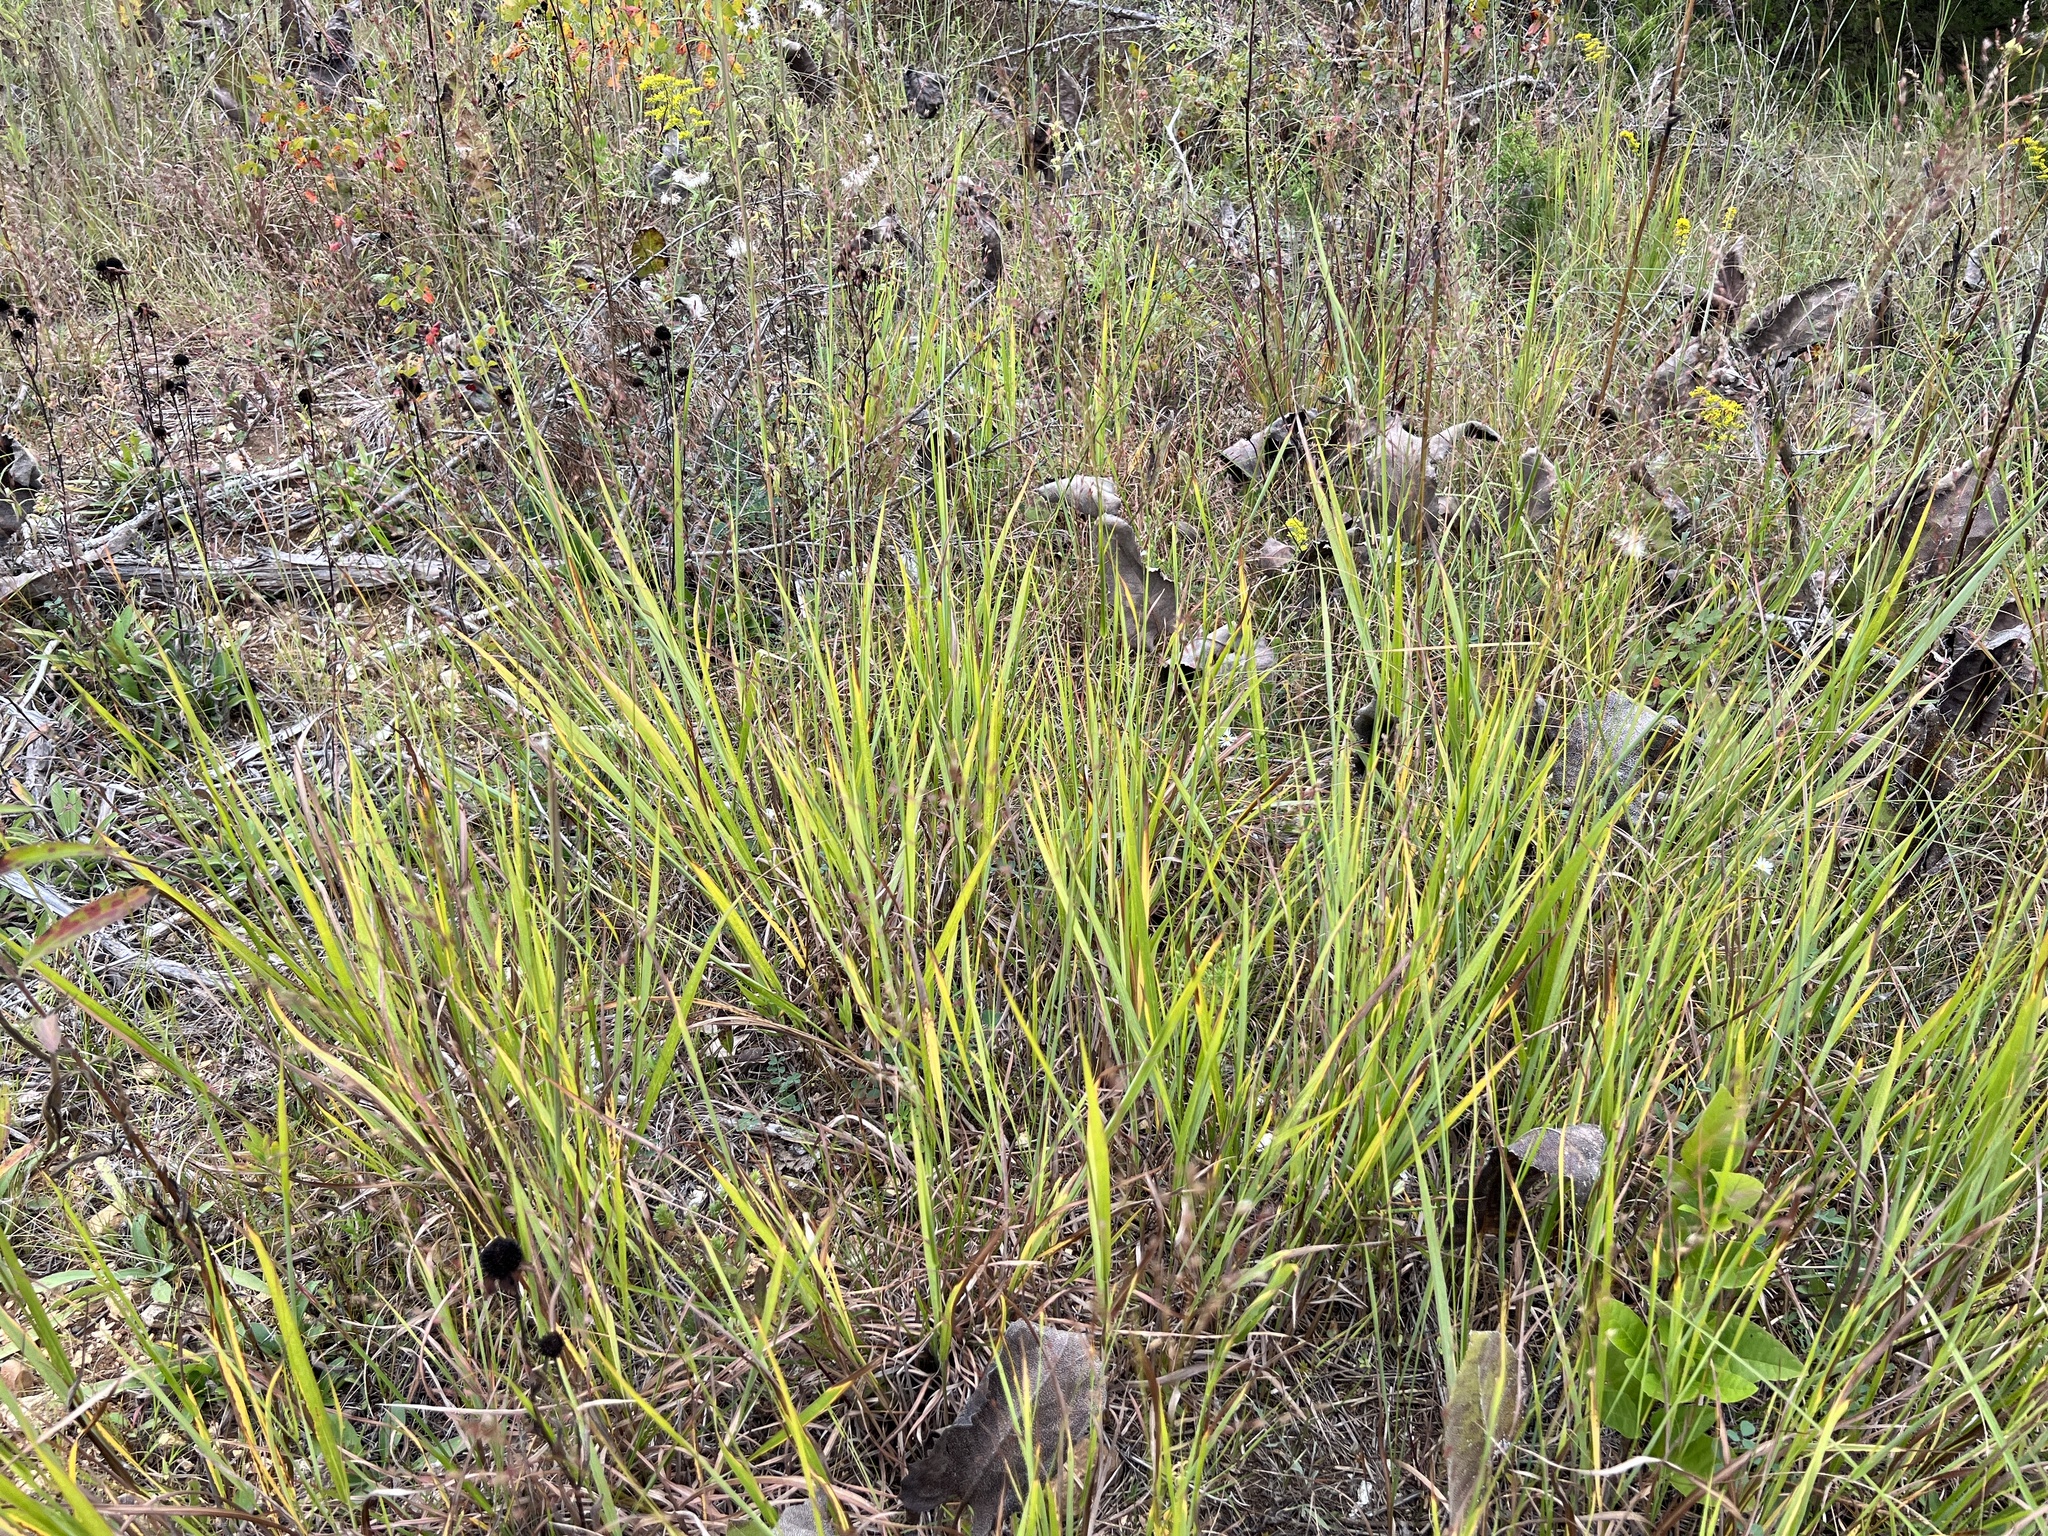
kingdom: Plantae
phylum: Tracheophyta
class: Liliopsida
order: Poales
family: Poaceae
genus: Panicum
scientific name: Panicum virgatum
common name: Switchgrass
